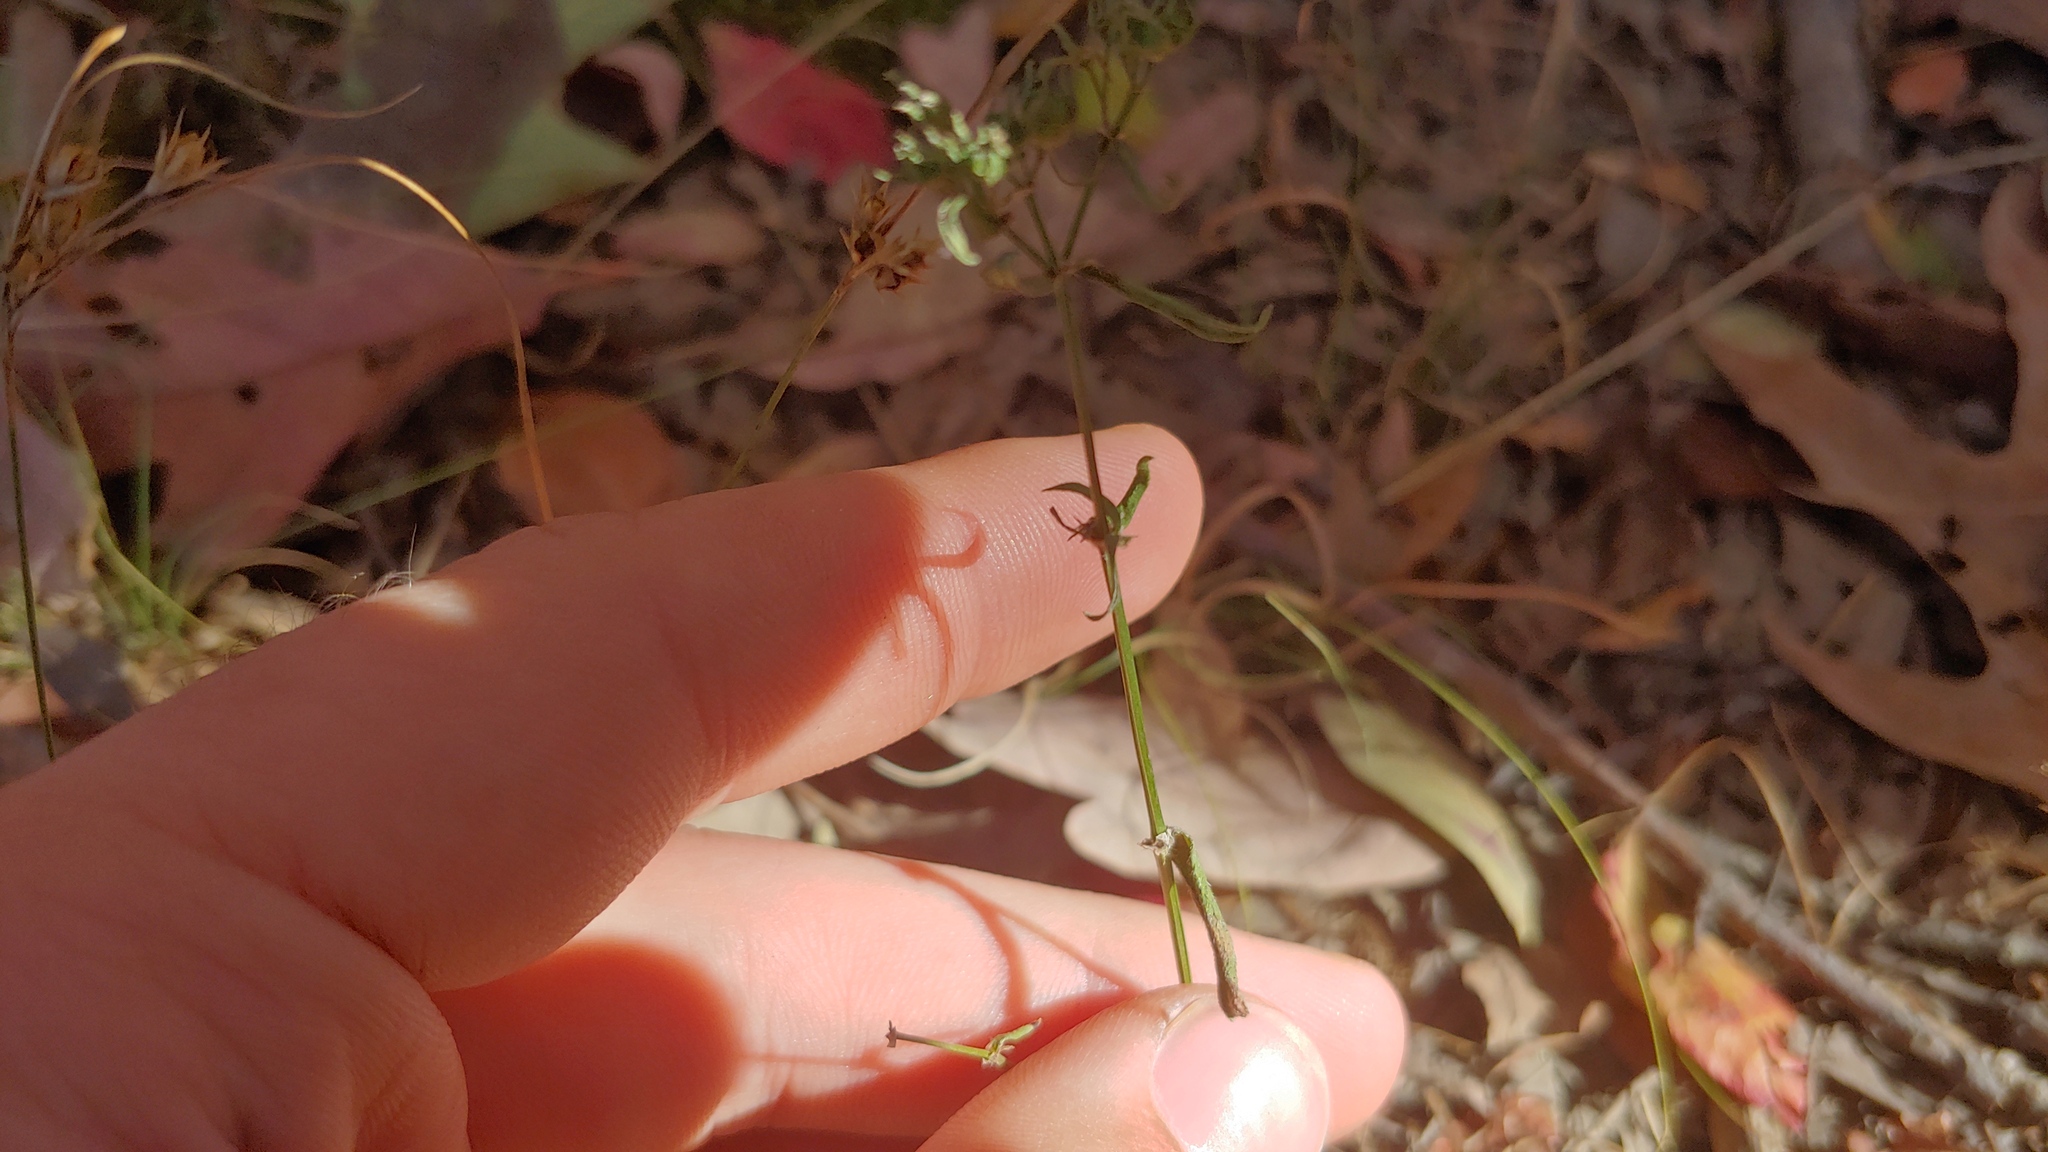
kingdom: Plantae
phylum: Tracheophyta
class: Magnoliopsida
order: Gentianales
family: Rubiaceae
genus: Houstonia
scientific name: Houstonia longifolia
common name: Long-leaved bluets
